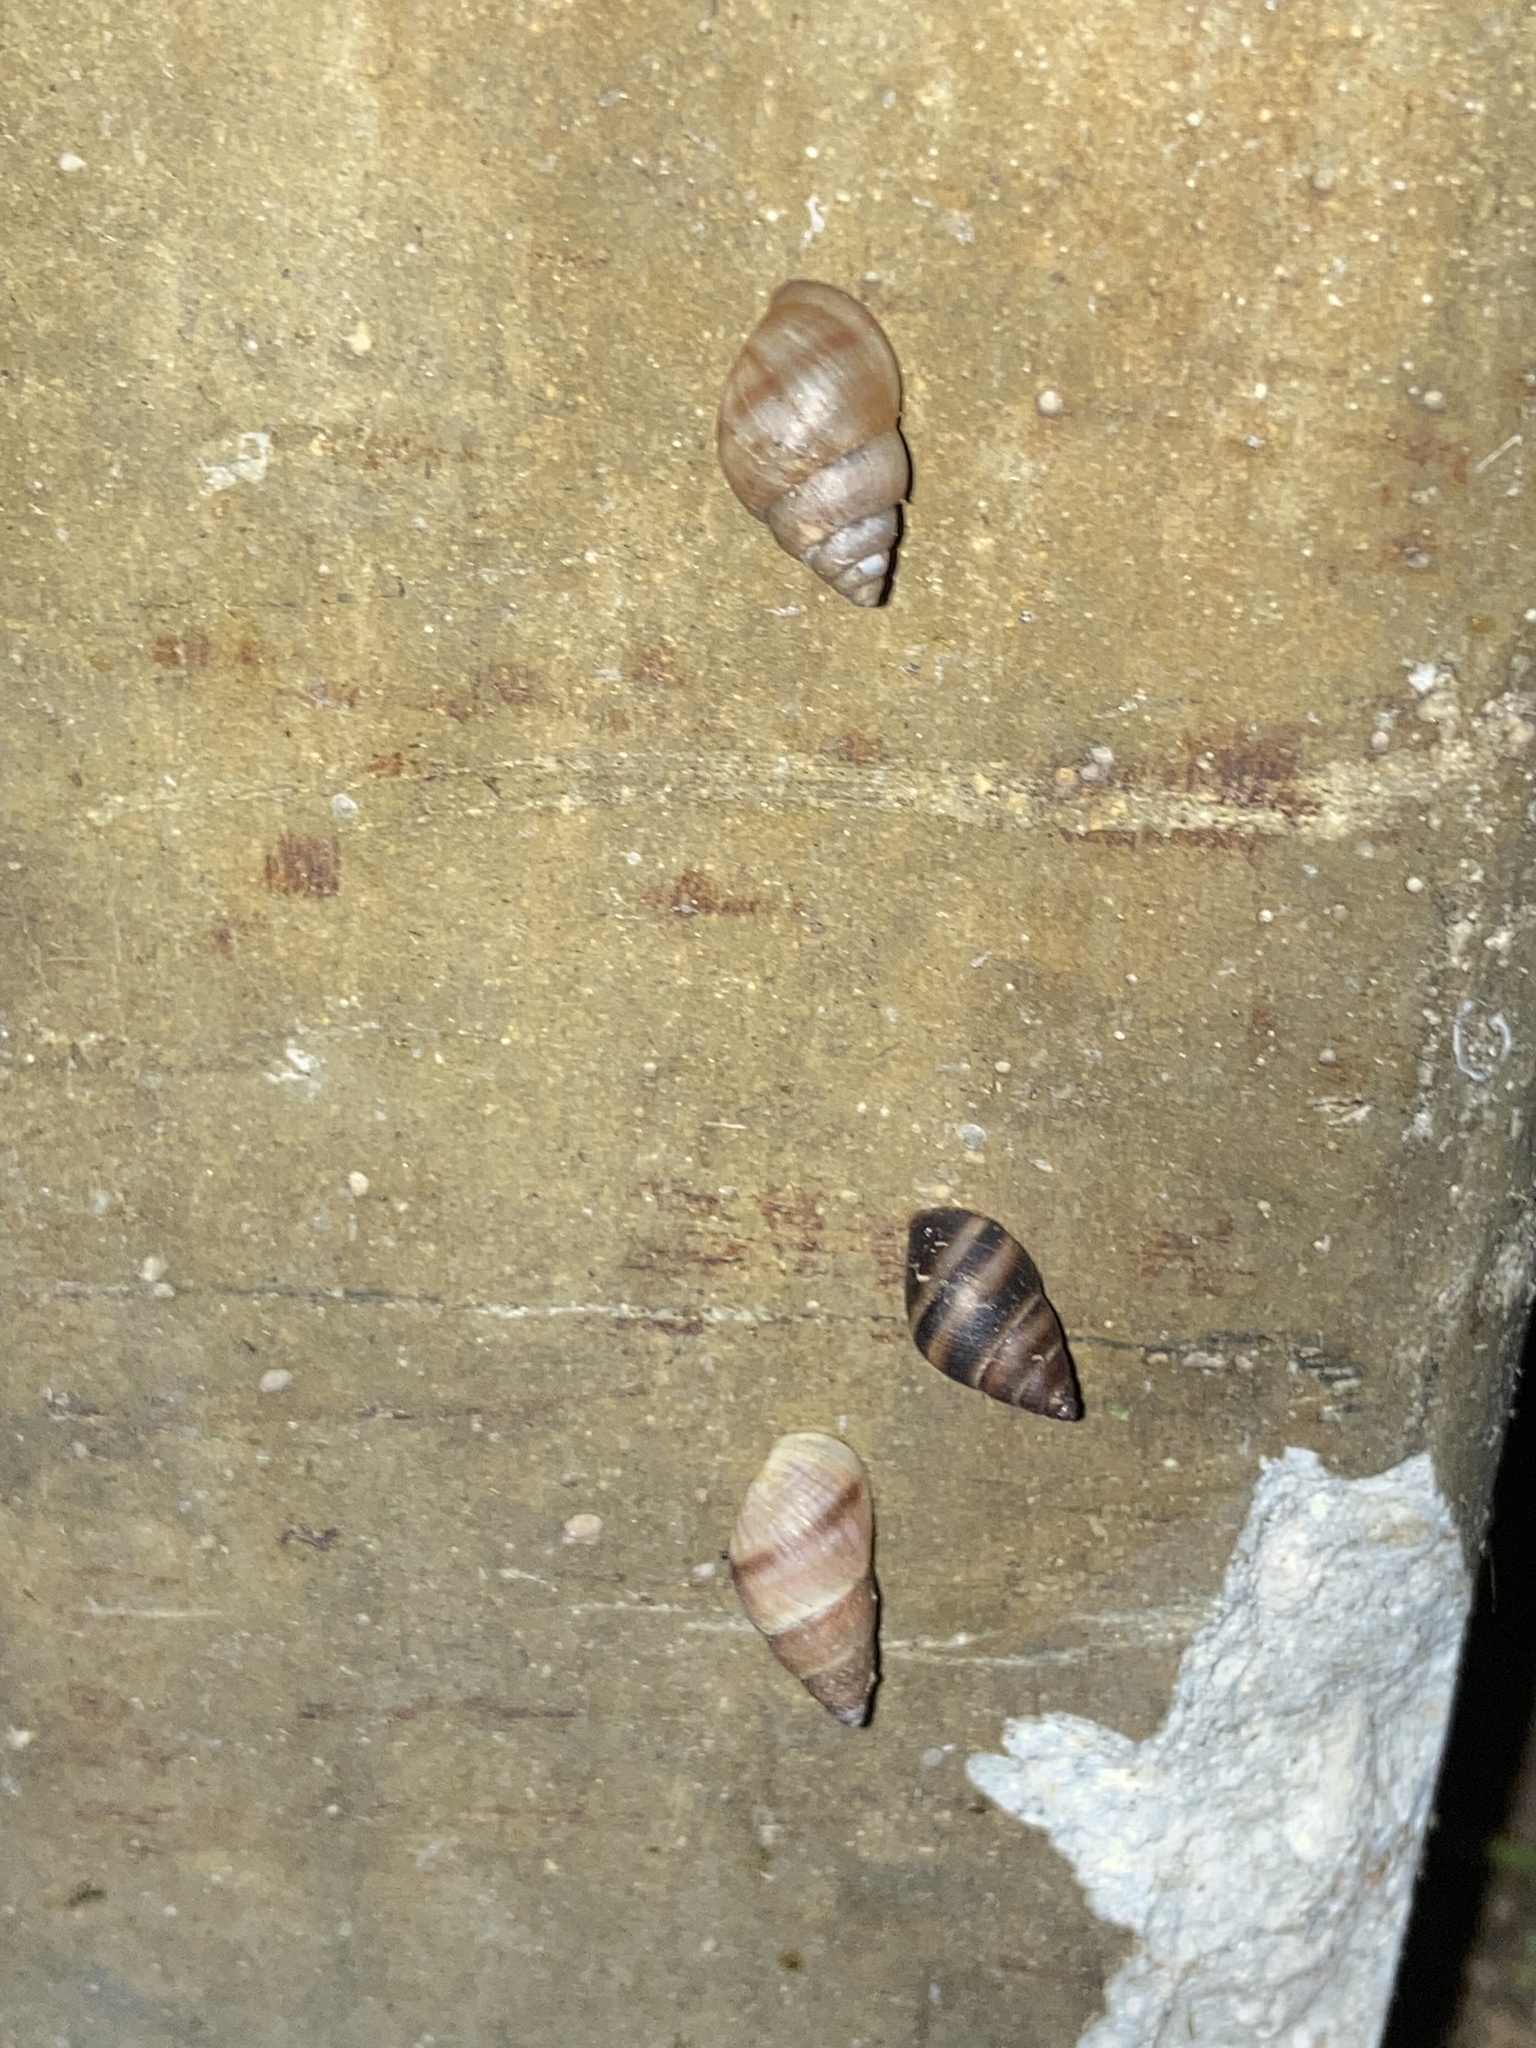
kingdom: Animalia
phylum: Mollusca
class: Gastropoda
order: Stylommatophora
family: Bulimulidae
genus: Bulimulus
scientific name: Bulimulus guadalupensis
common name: West indian bulimulus
